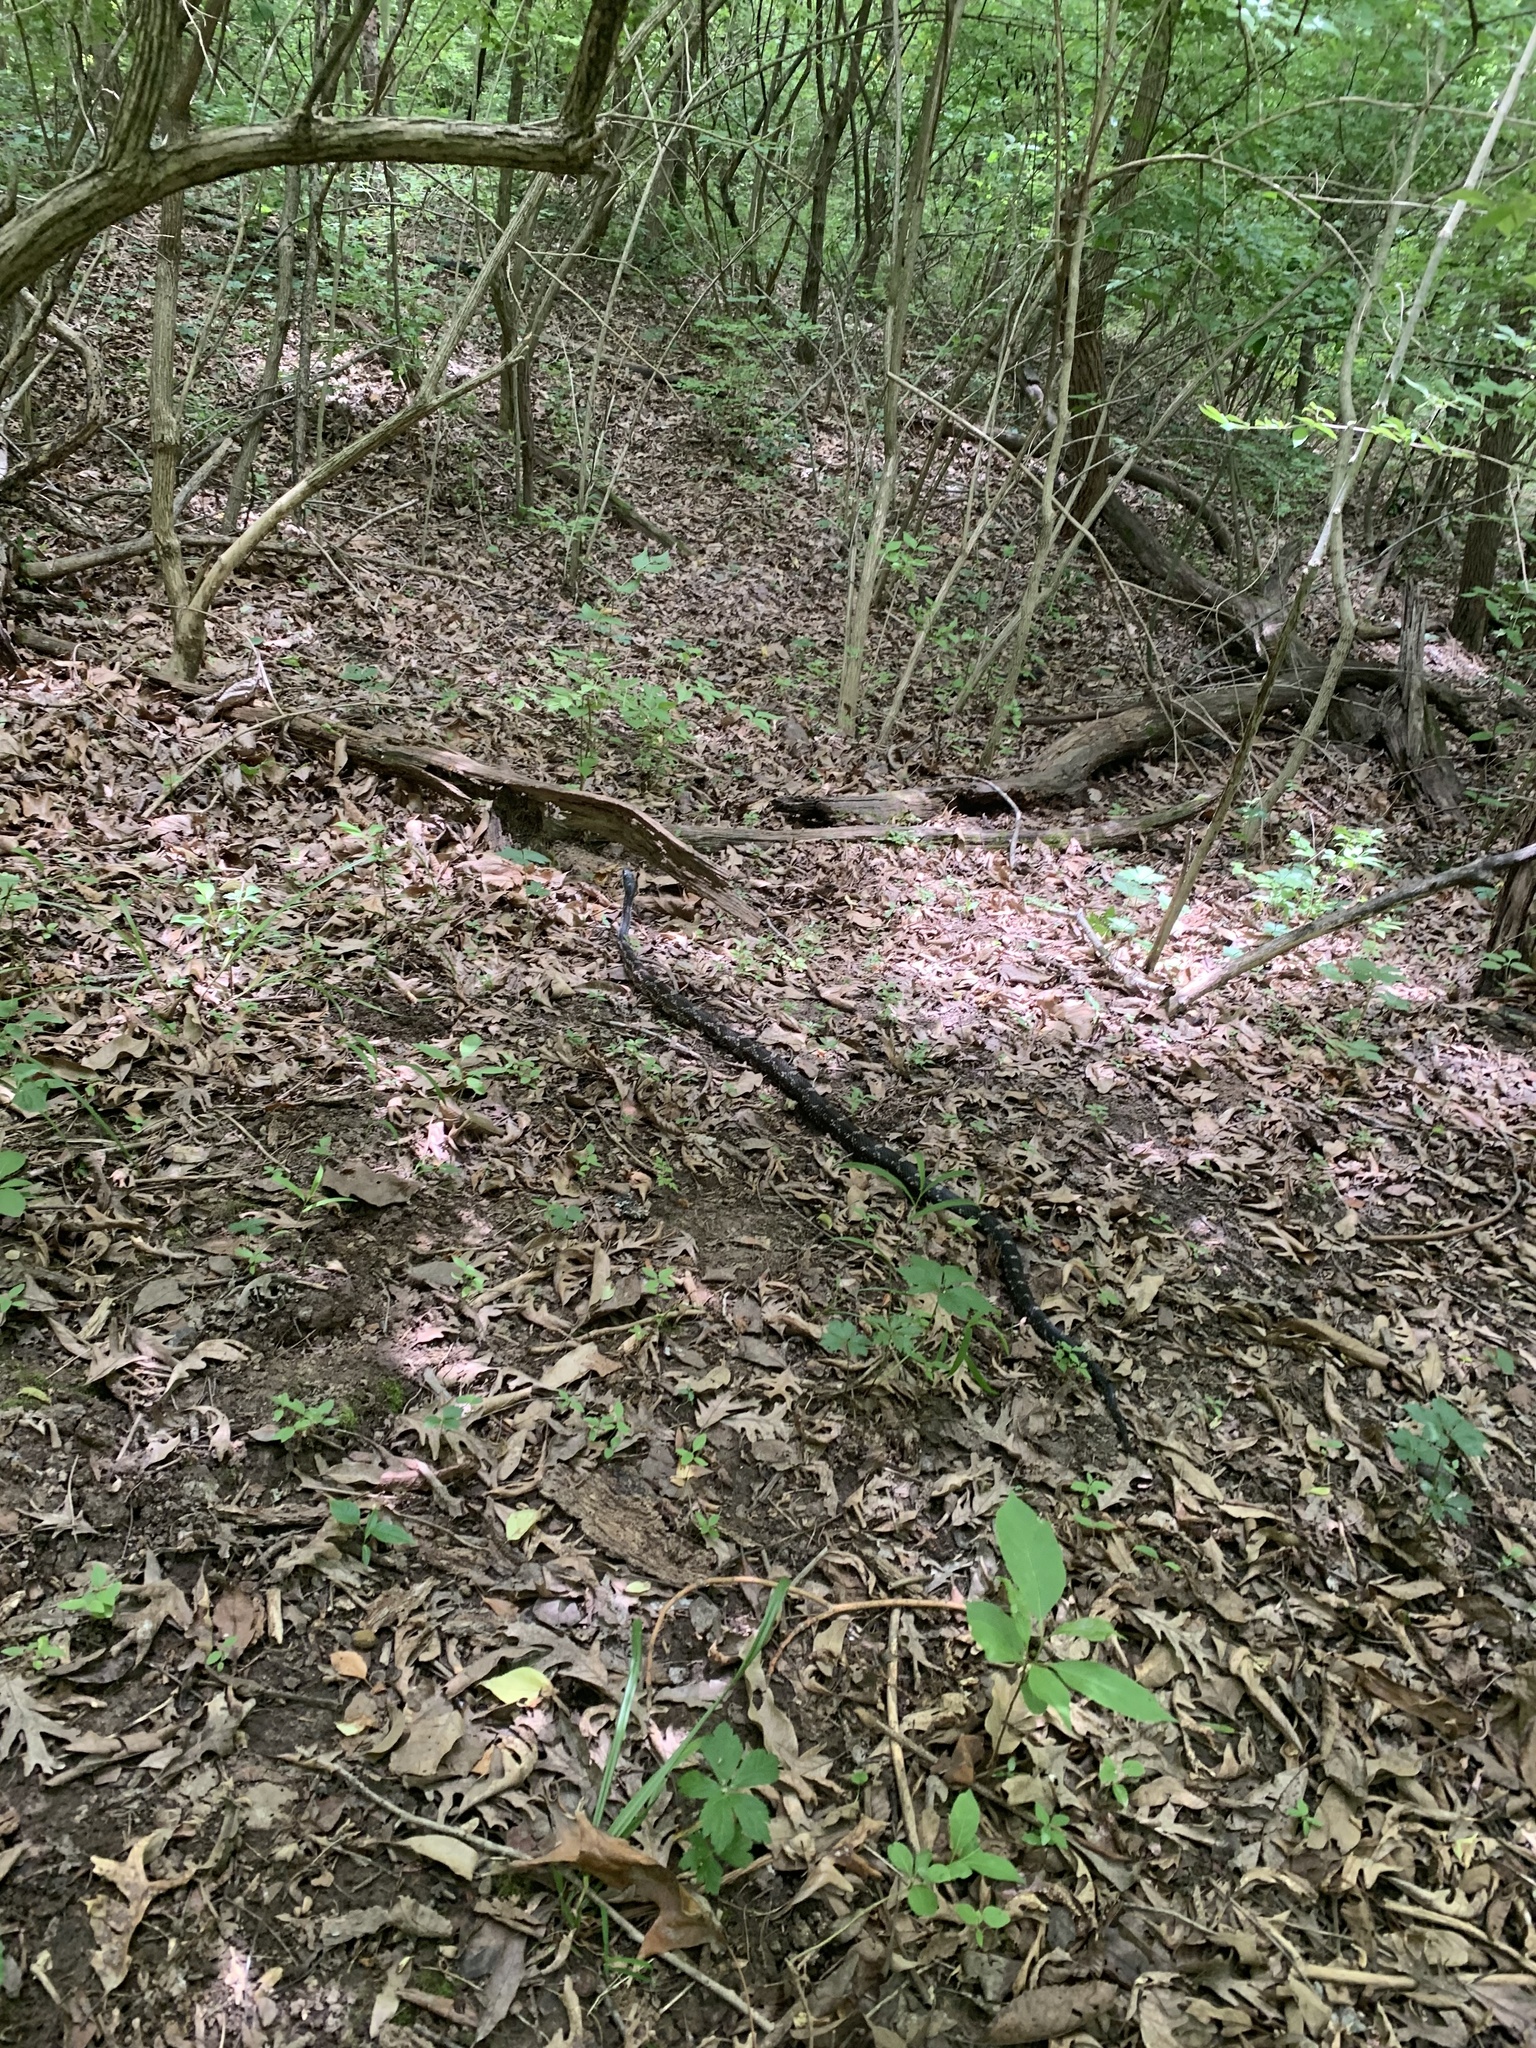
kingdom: Animalia
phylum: Chordata
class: Squamata
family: Colubridae
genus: Pantherophis
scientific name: Pantherophis spiloides
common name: Gray rat snake
